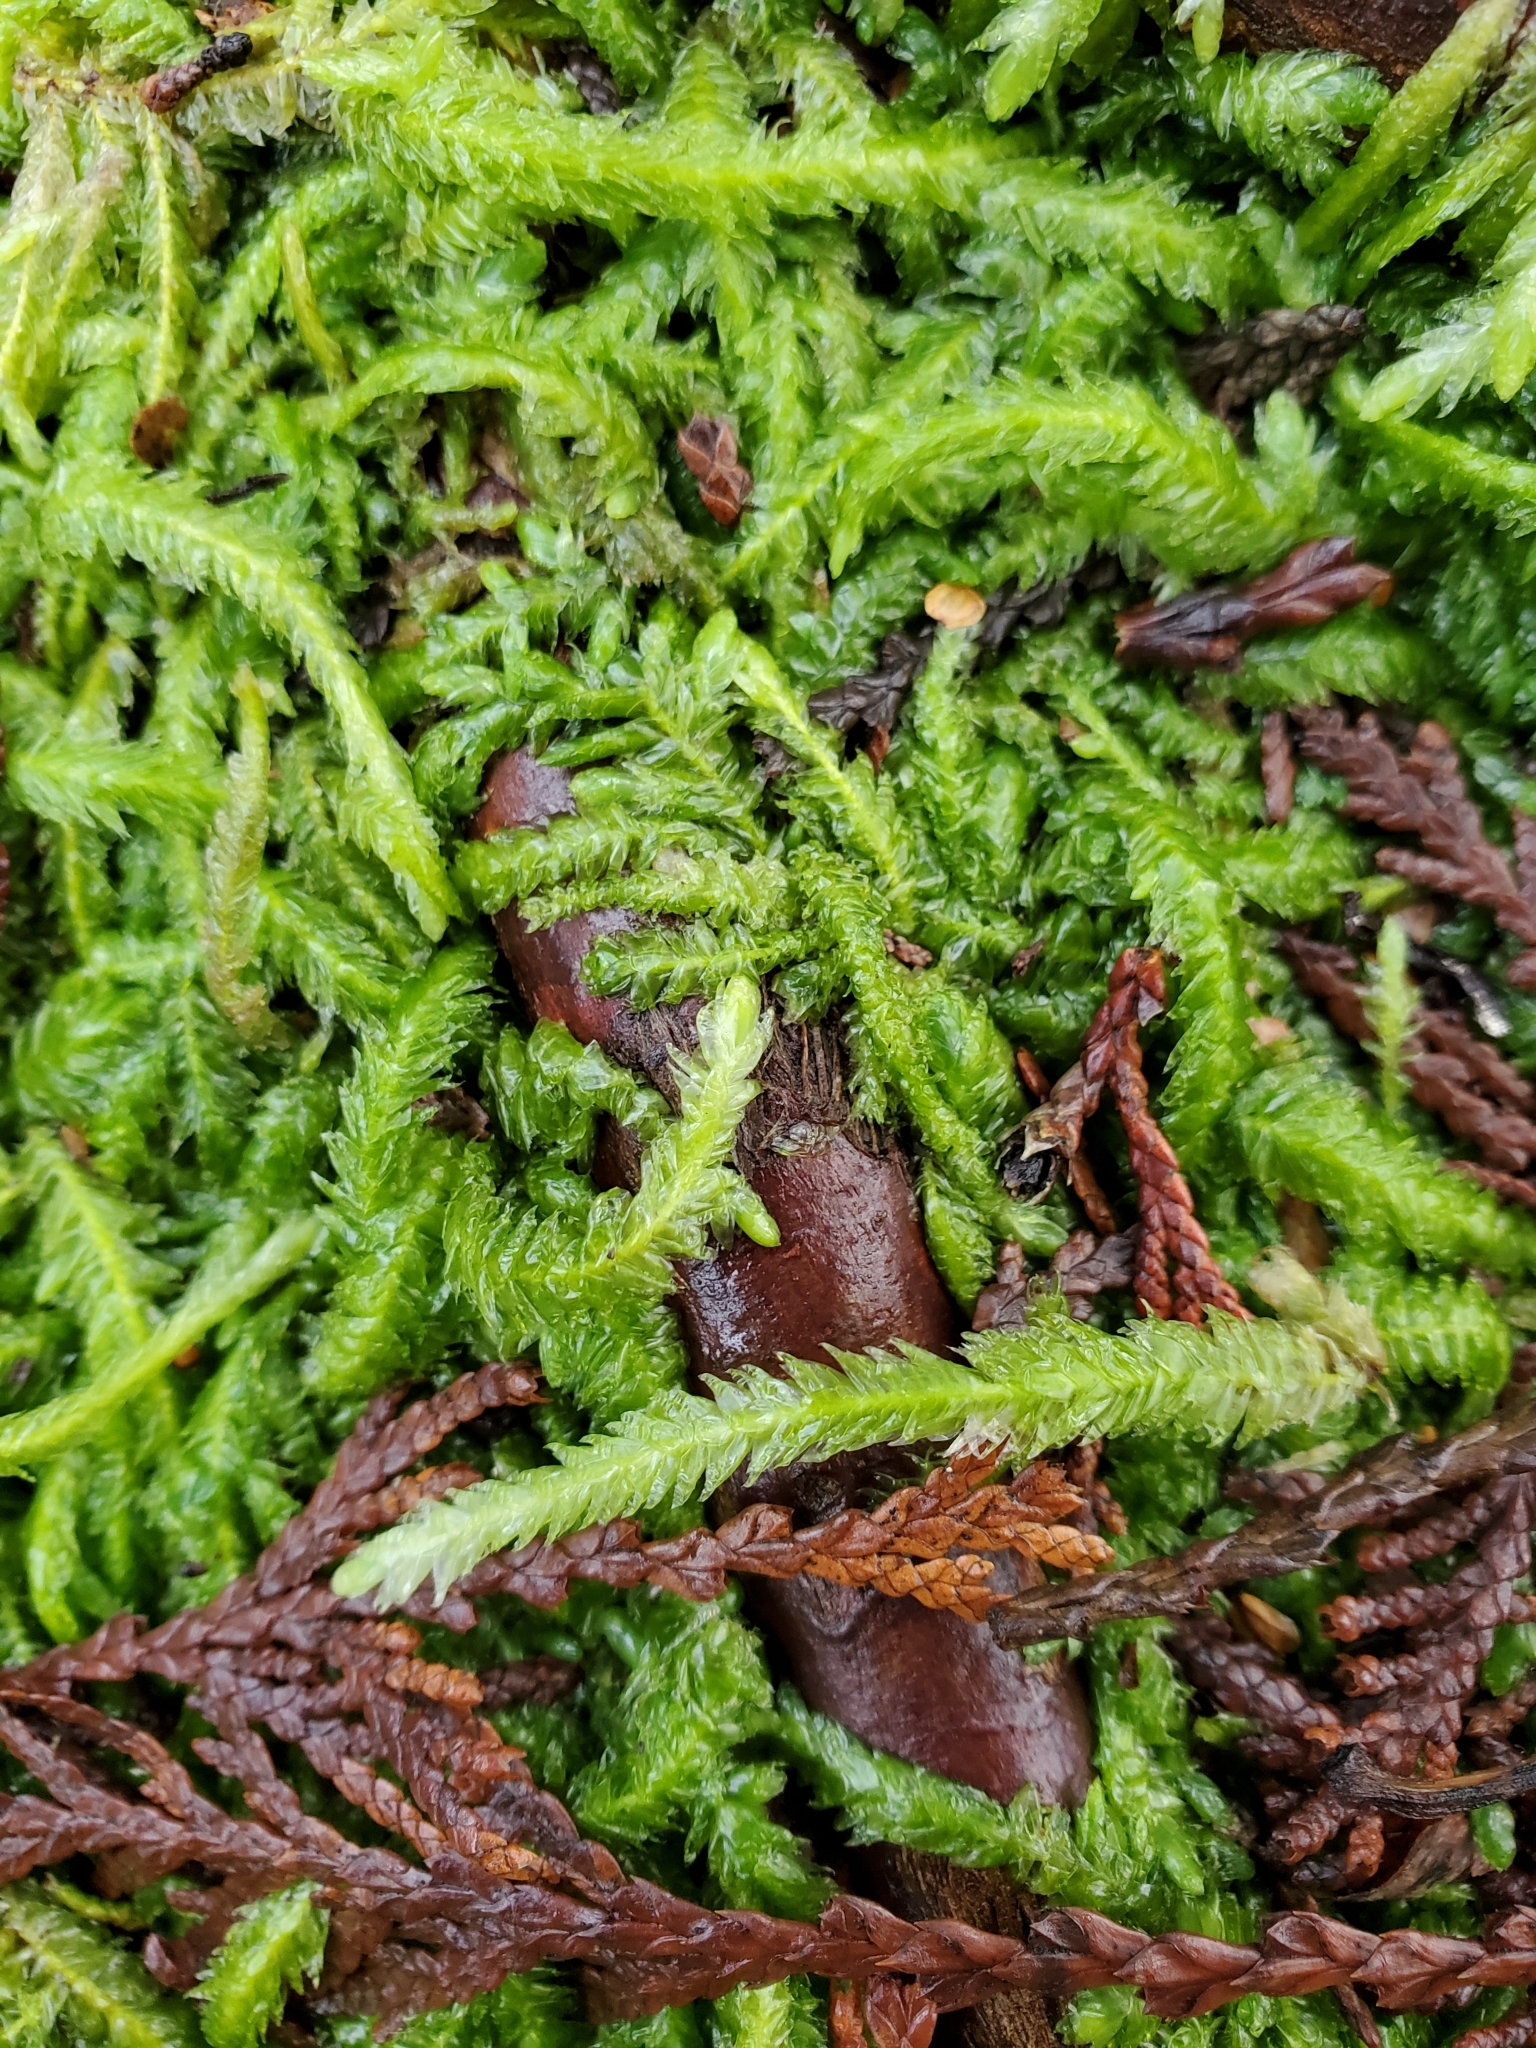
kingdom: Plantae
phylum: Bryophyta
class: Bryopsida
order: Hypnales
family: Plagiotheciaceae
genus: Plagiothecium
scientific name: Plagiothecium undulatum
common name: Waved silk-moss
